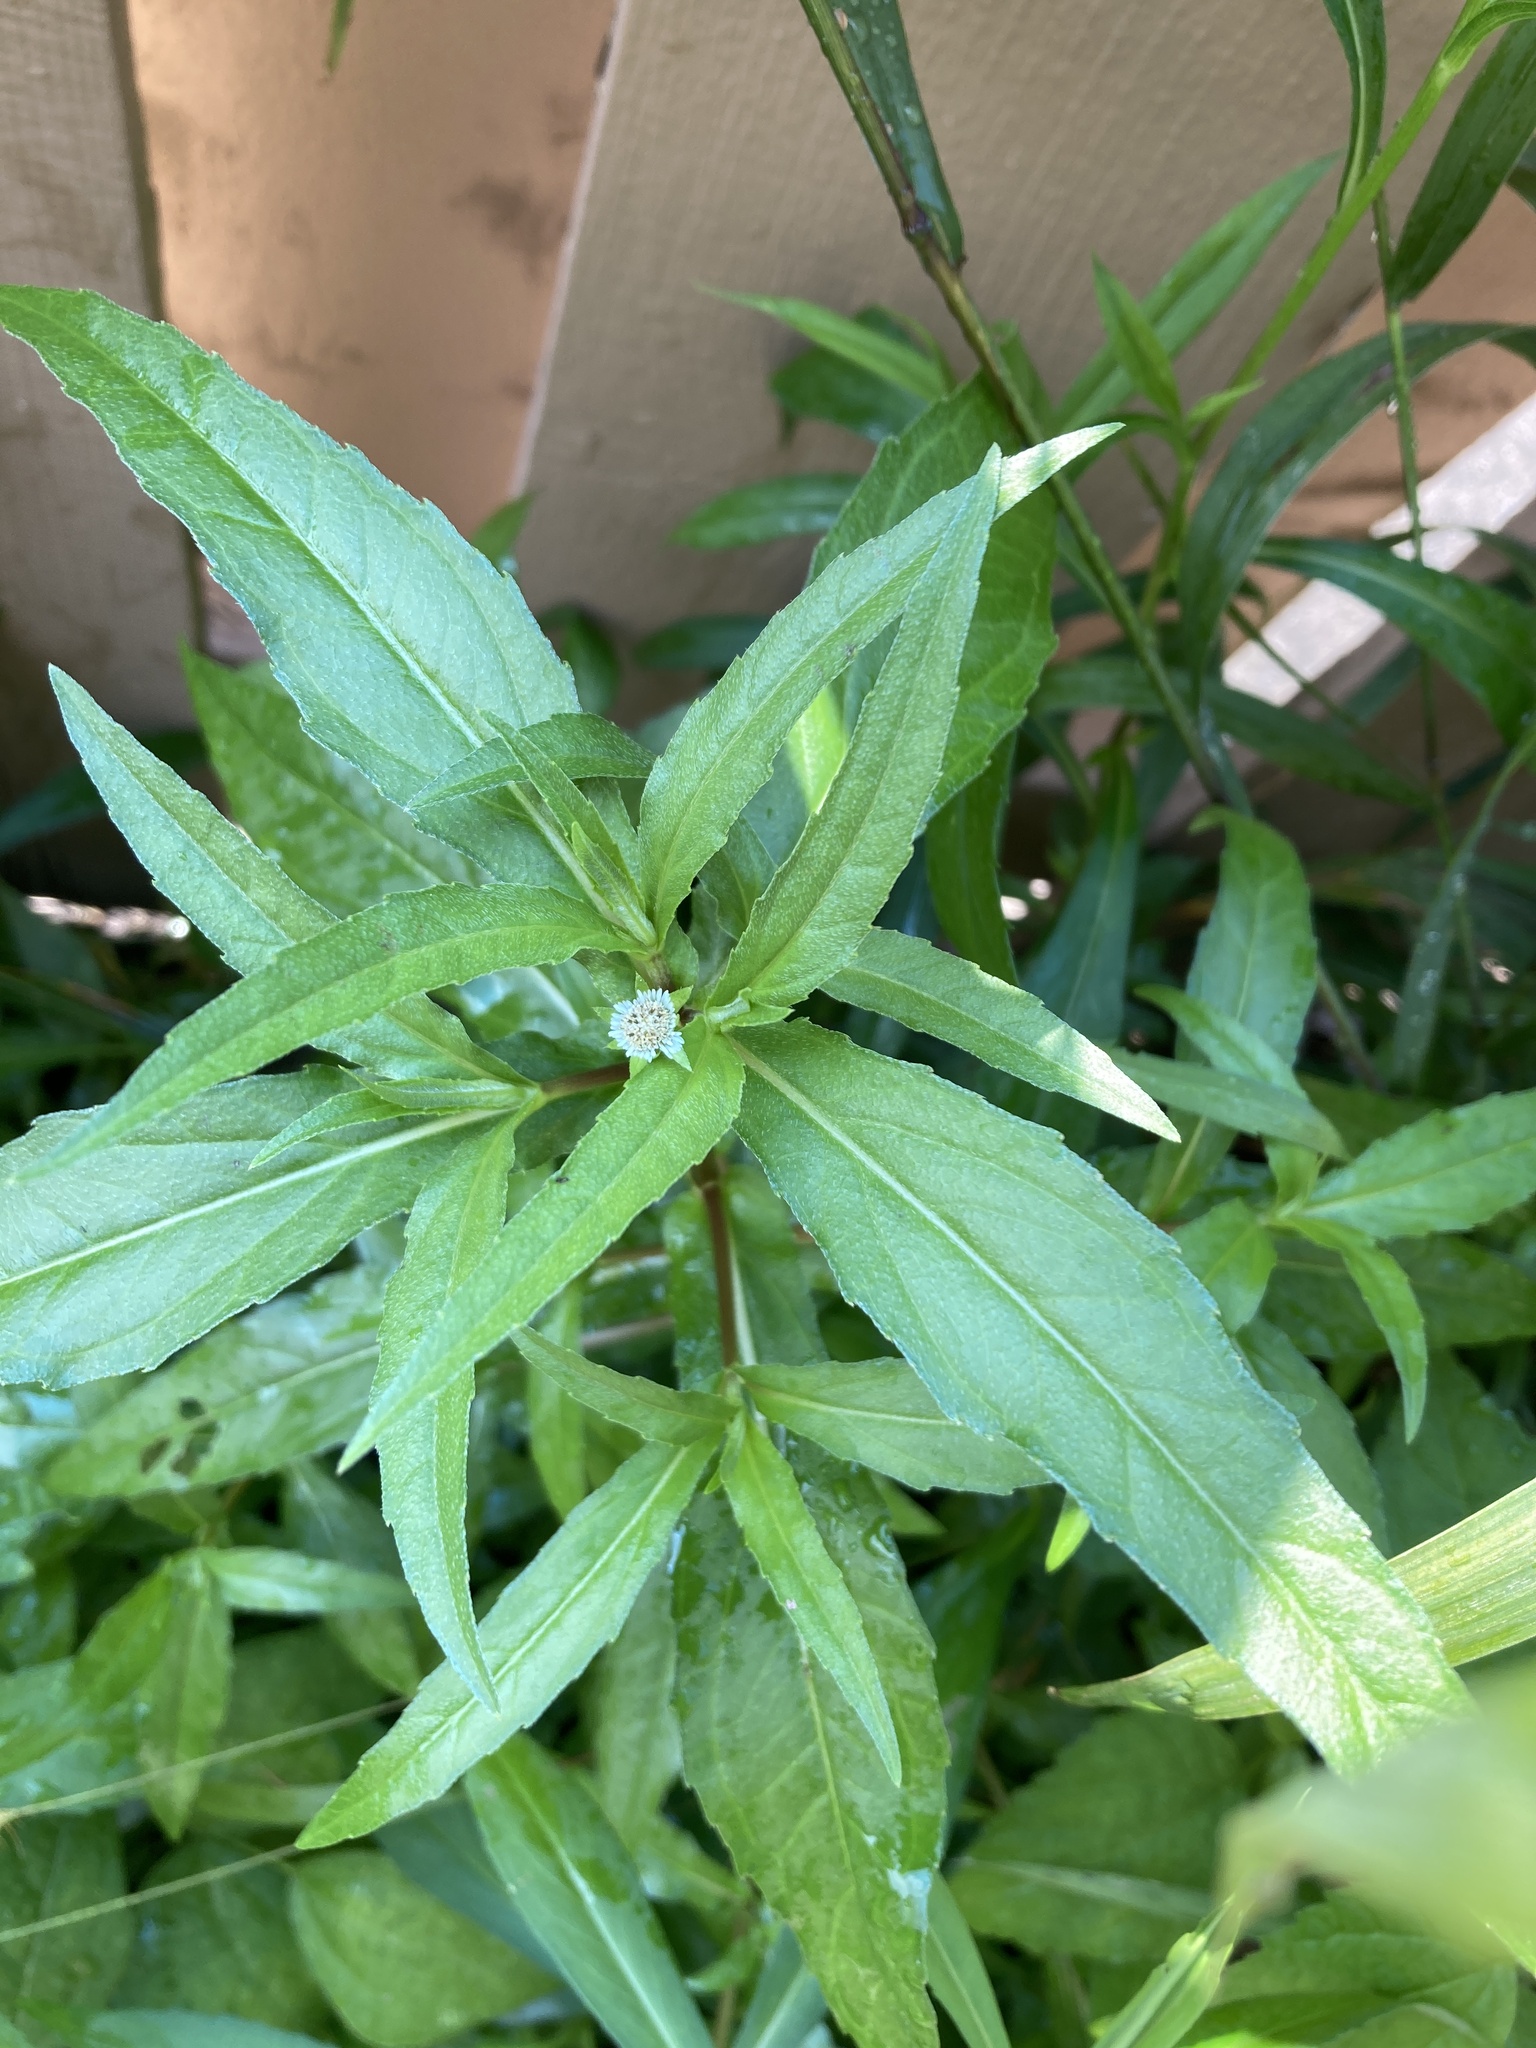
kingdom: Plantae
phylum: Tracheophyta
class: Magnoliopsida
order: Asterales
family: Asteraceae
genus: Eclipta
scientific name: Eclipta prostrata
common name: False daisy
